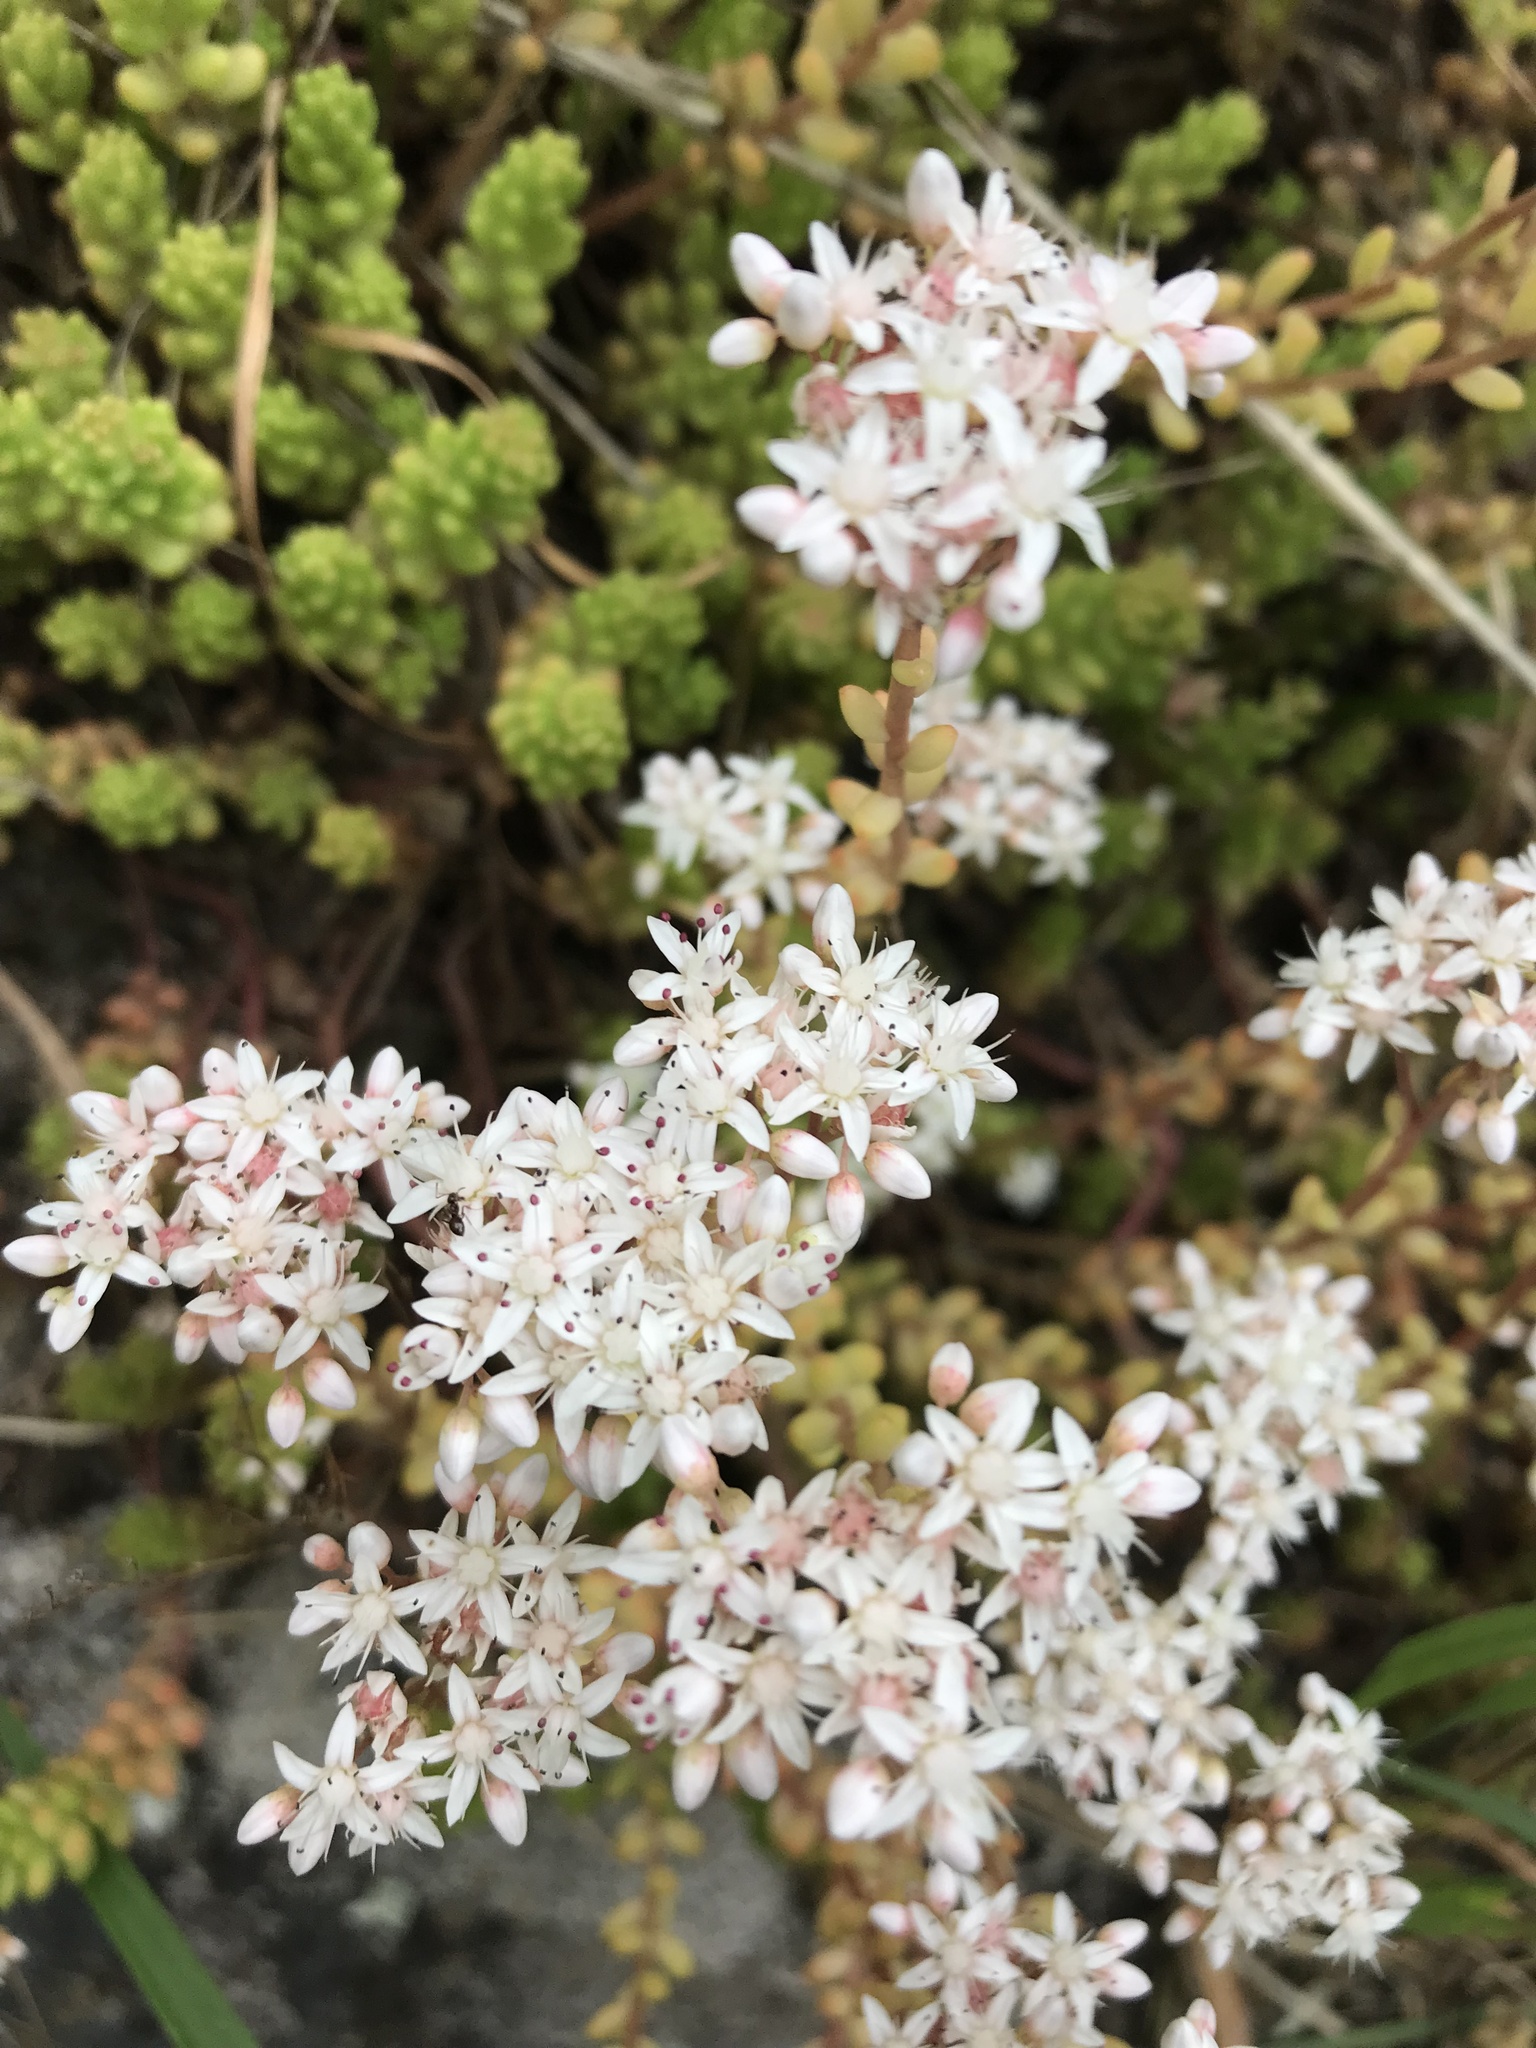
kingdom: Plantae
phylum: Tracheophyta
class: Magnoliopsida
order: Saxifragales
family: Crassulaceae
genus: Sedum
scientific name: Sedum album
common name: White stonecrop
